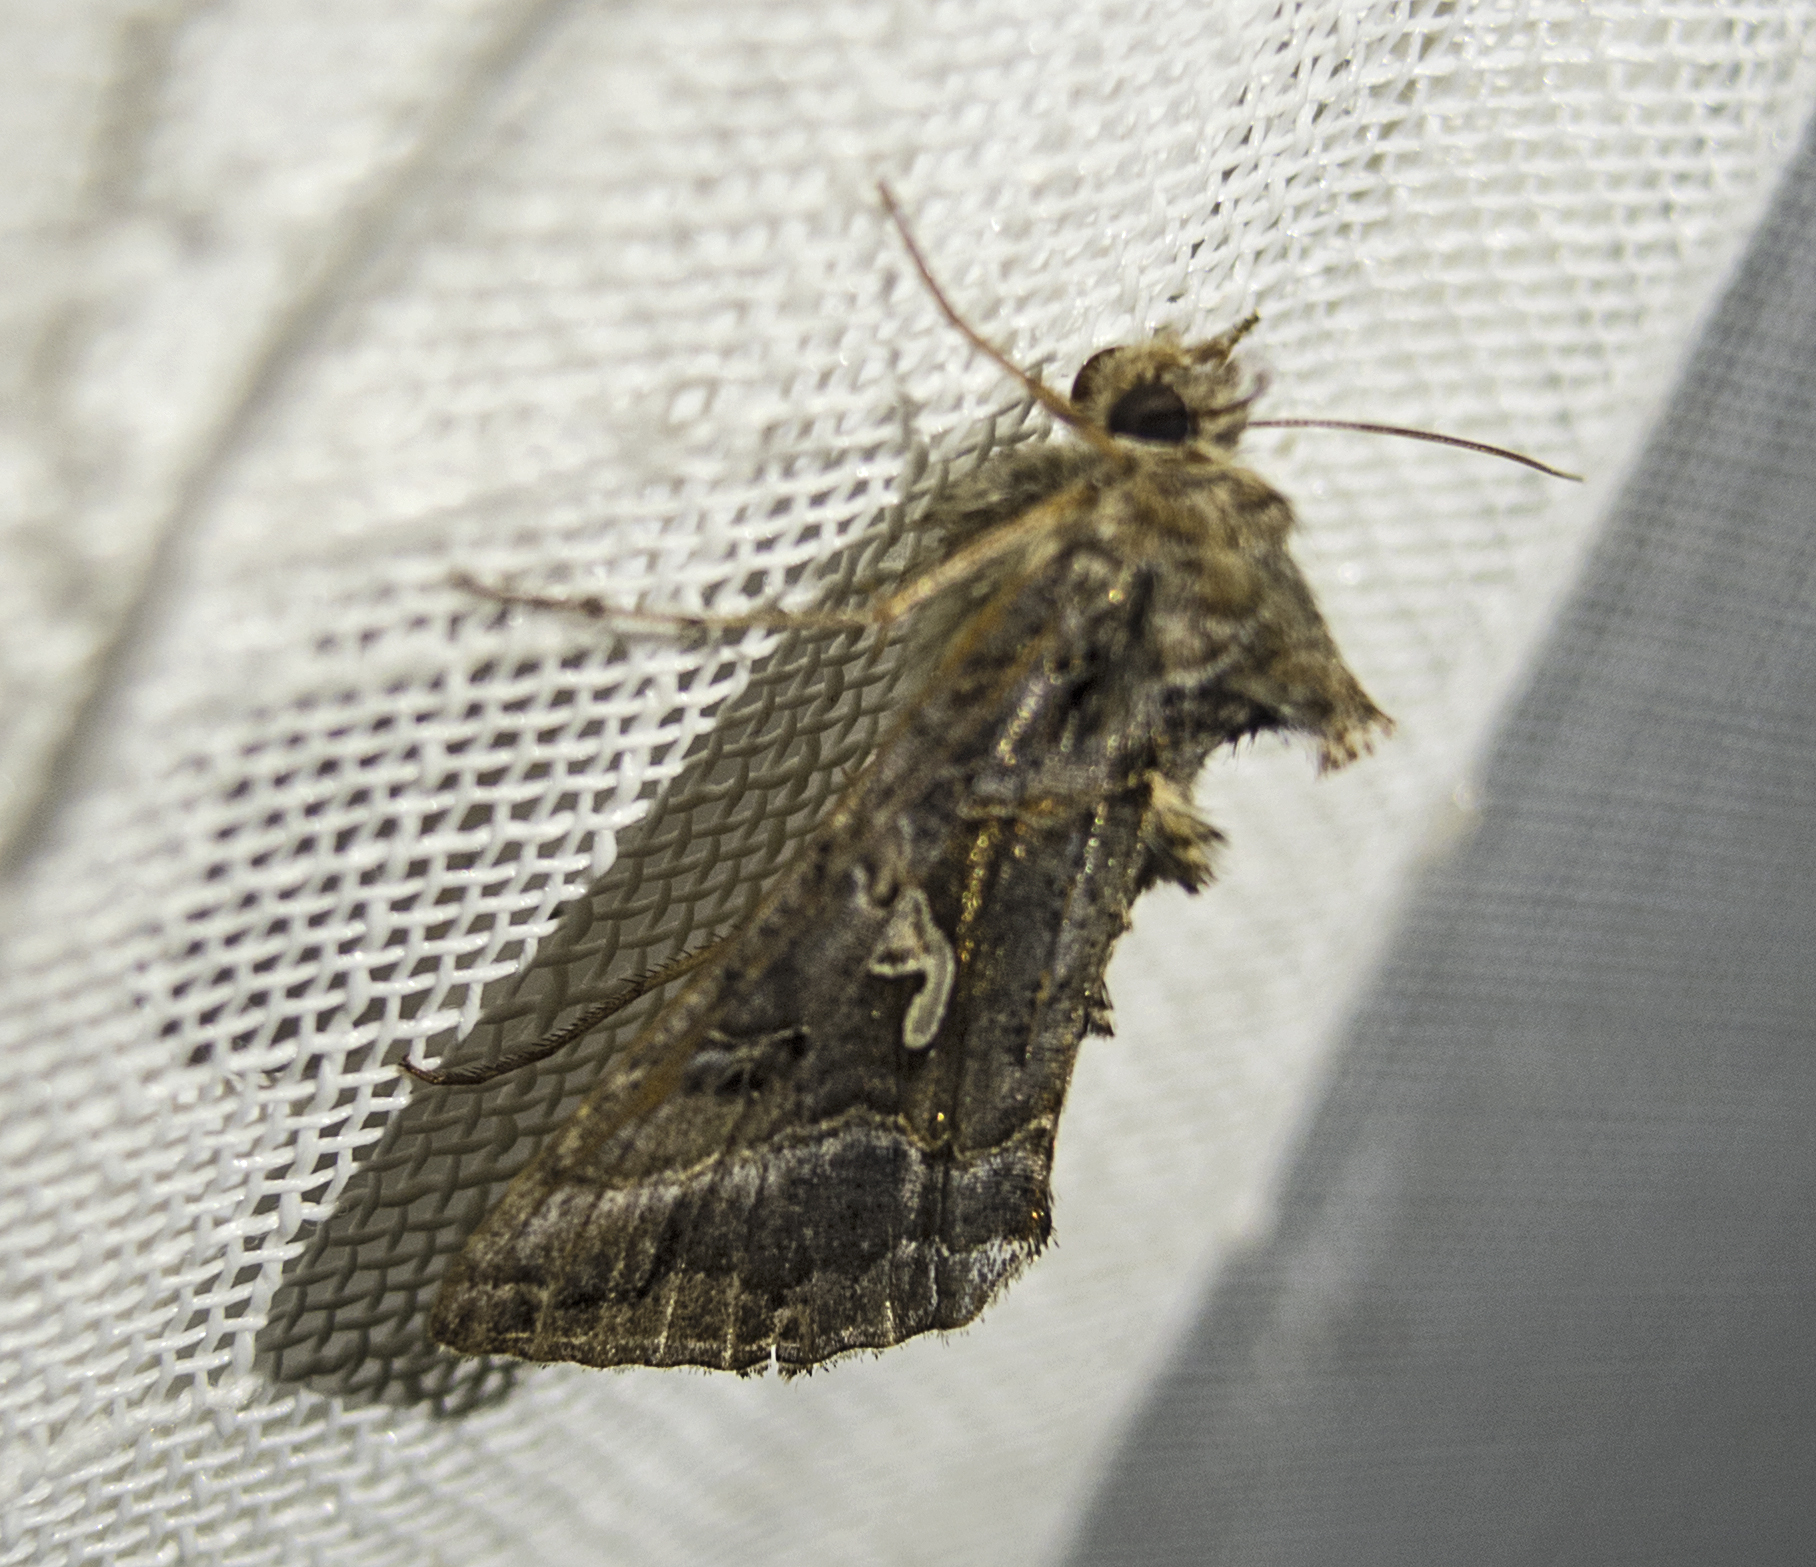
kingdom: Animalia
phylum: Arthropoda
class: Insecta
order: Lepidoptera
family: Noctuidae
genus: Autographa
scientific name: Autographa gamma
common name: Silver y
